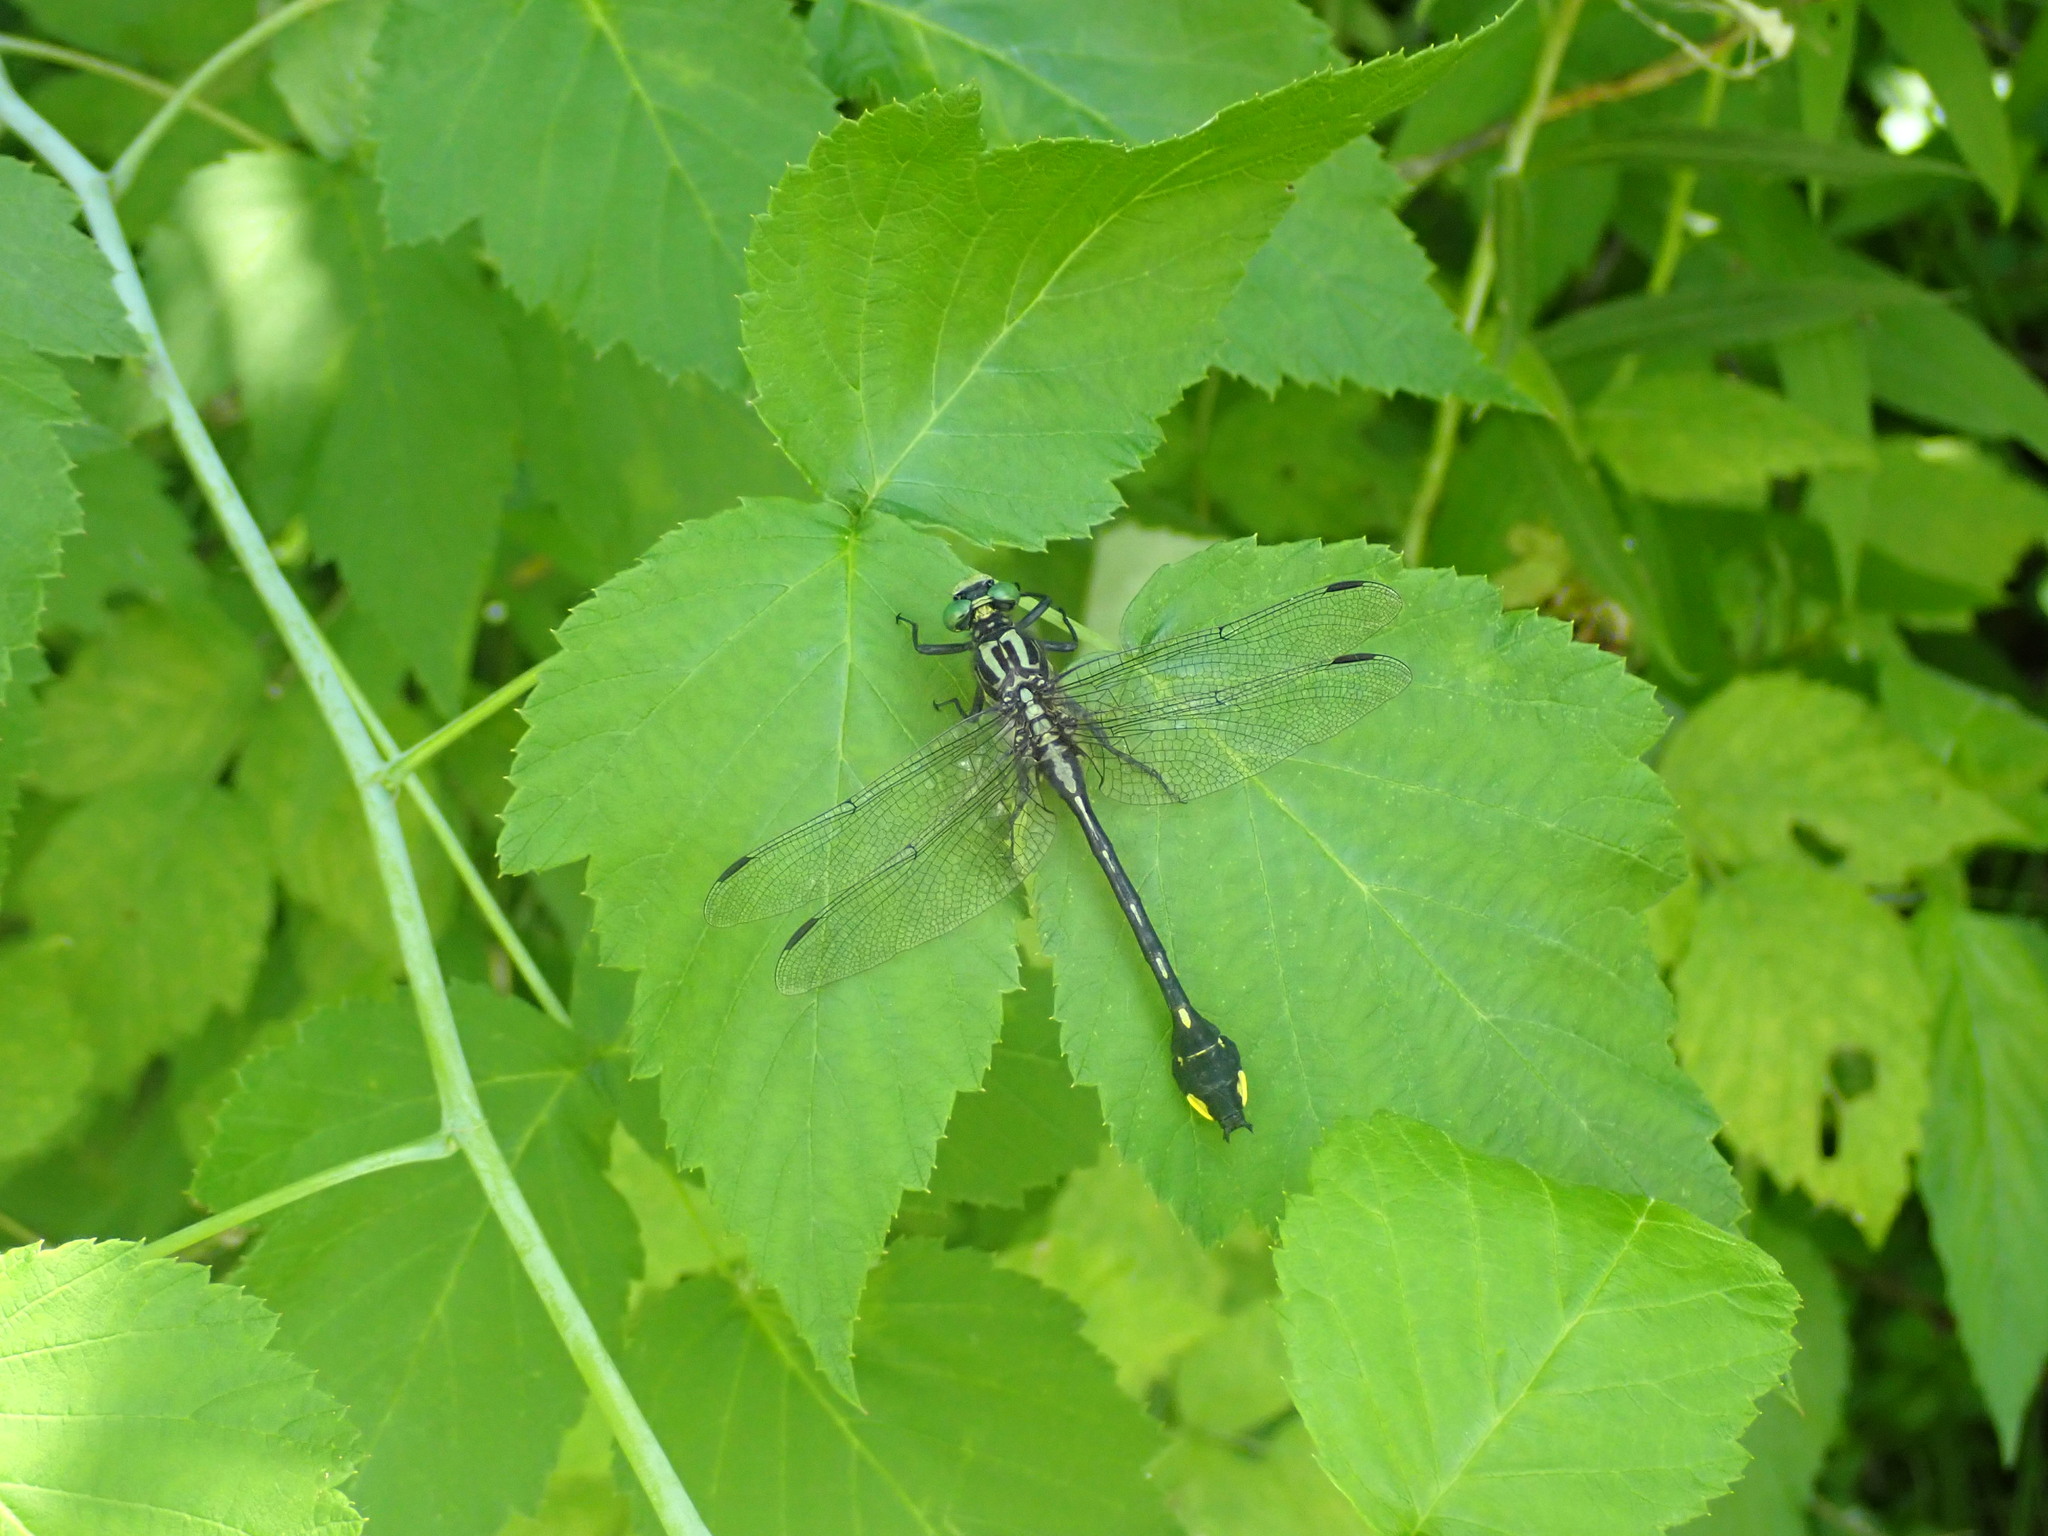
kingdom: Animalia
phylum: Arthropoda
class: Insecta
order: Odonata
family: Gomphidae
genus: Gomphurus
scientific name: Gomphurus vastus
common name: Cobra clubtail
